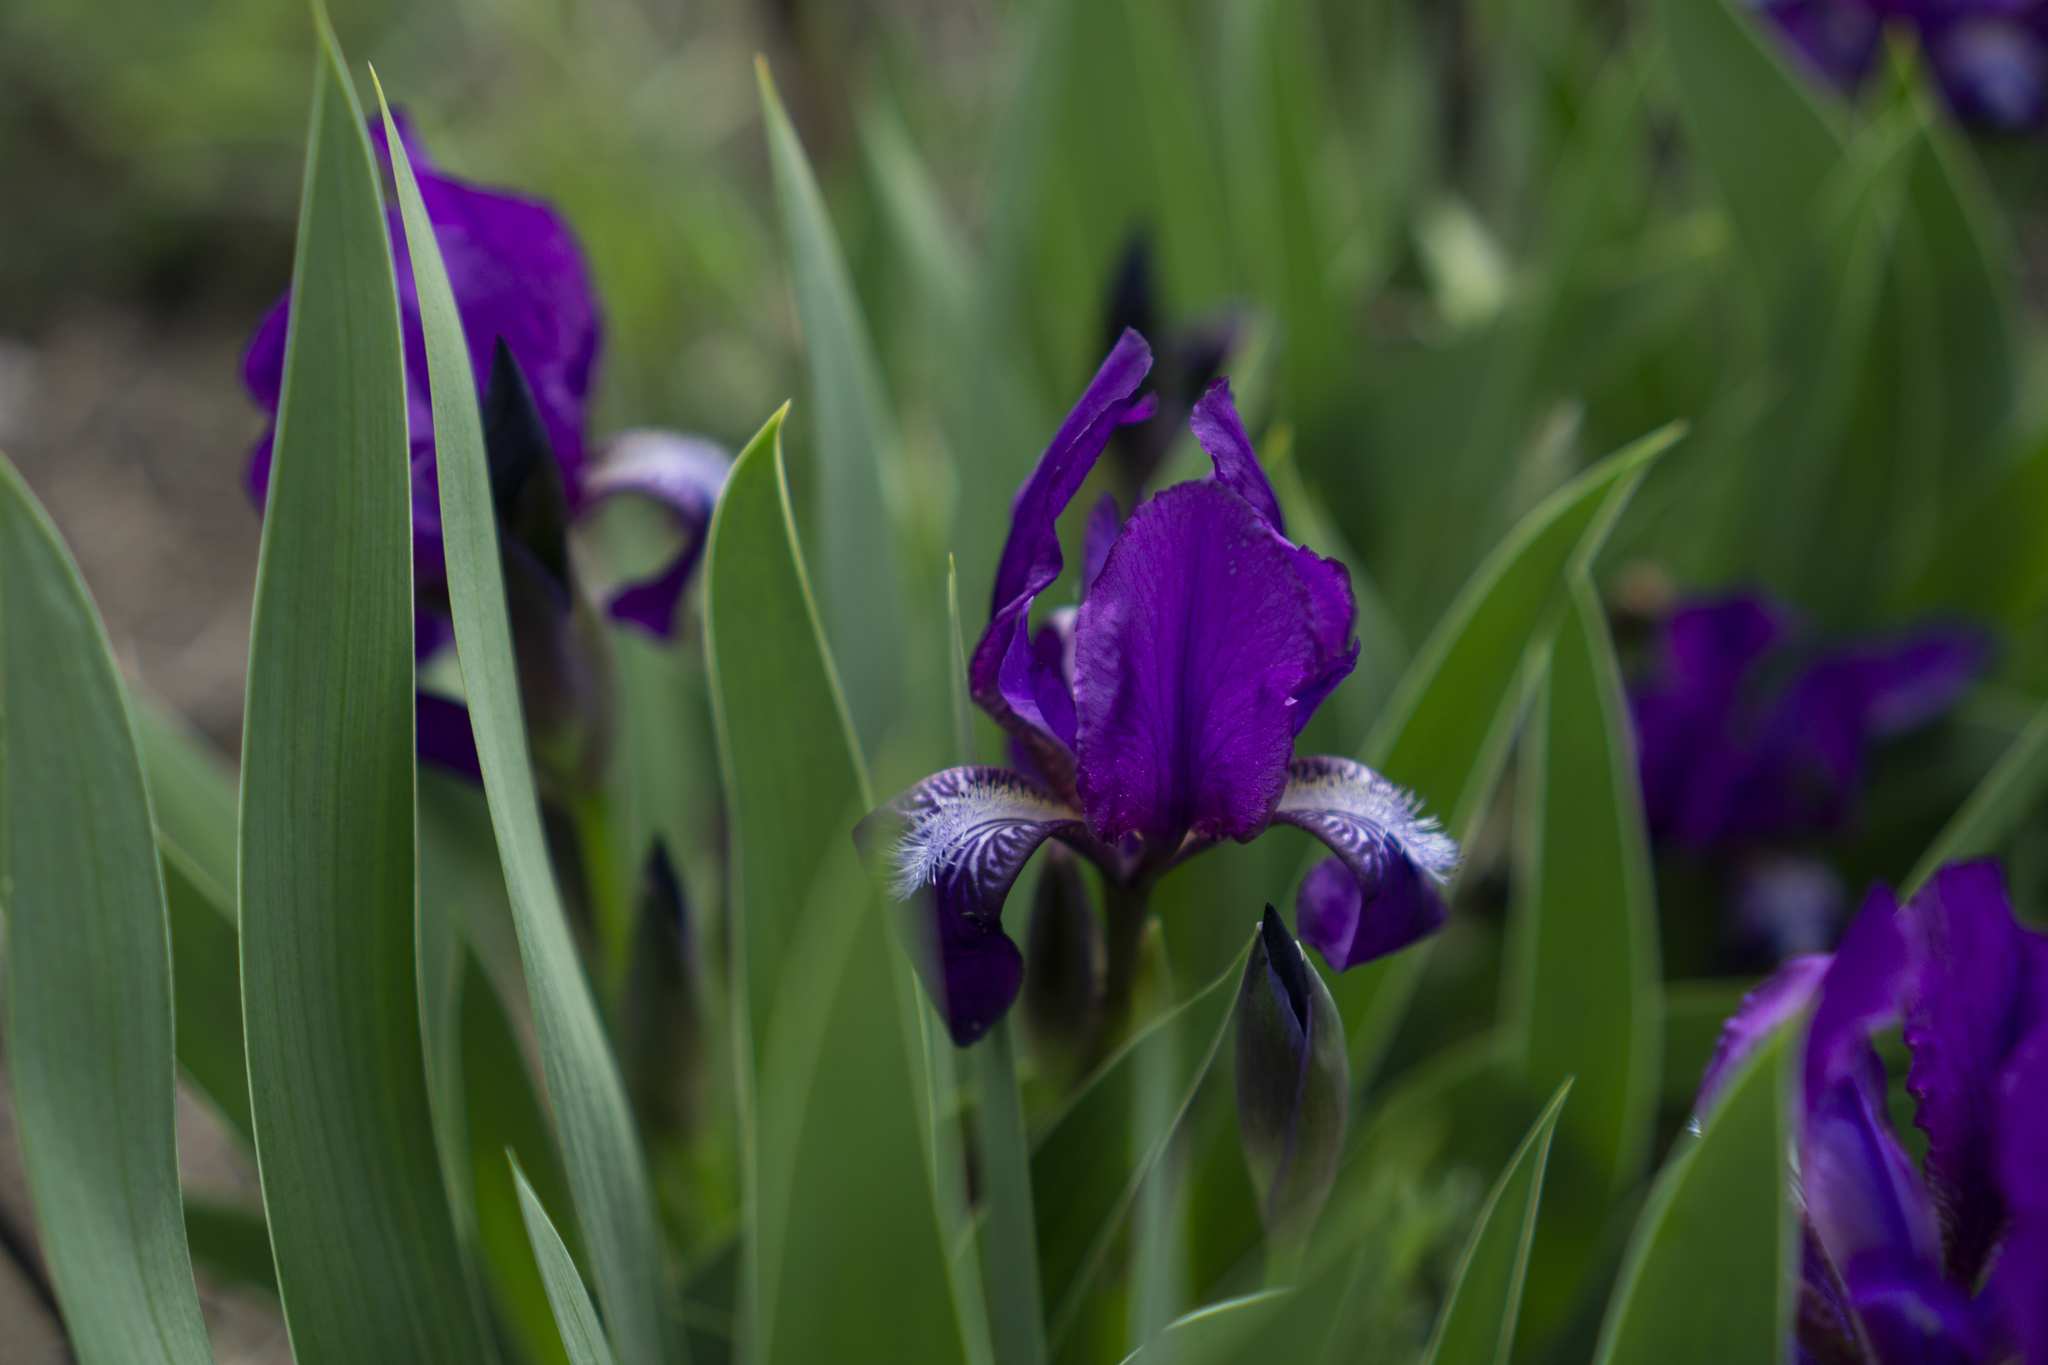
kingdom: Plantae
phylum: Tracheophyta
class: Liliopsida
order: Asparagales
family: Iridaceae
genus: Iris
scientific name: Iris aphylla
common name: Stool iris
